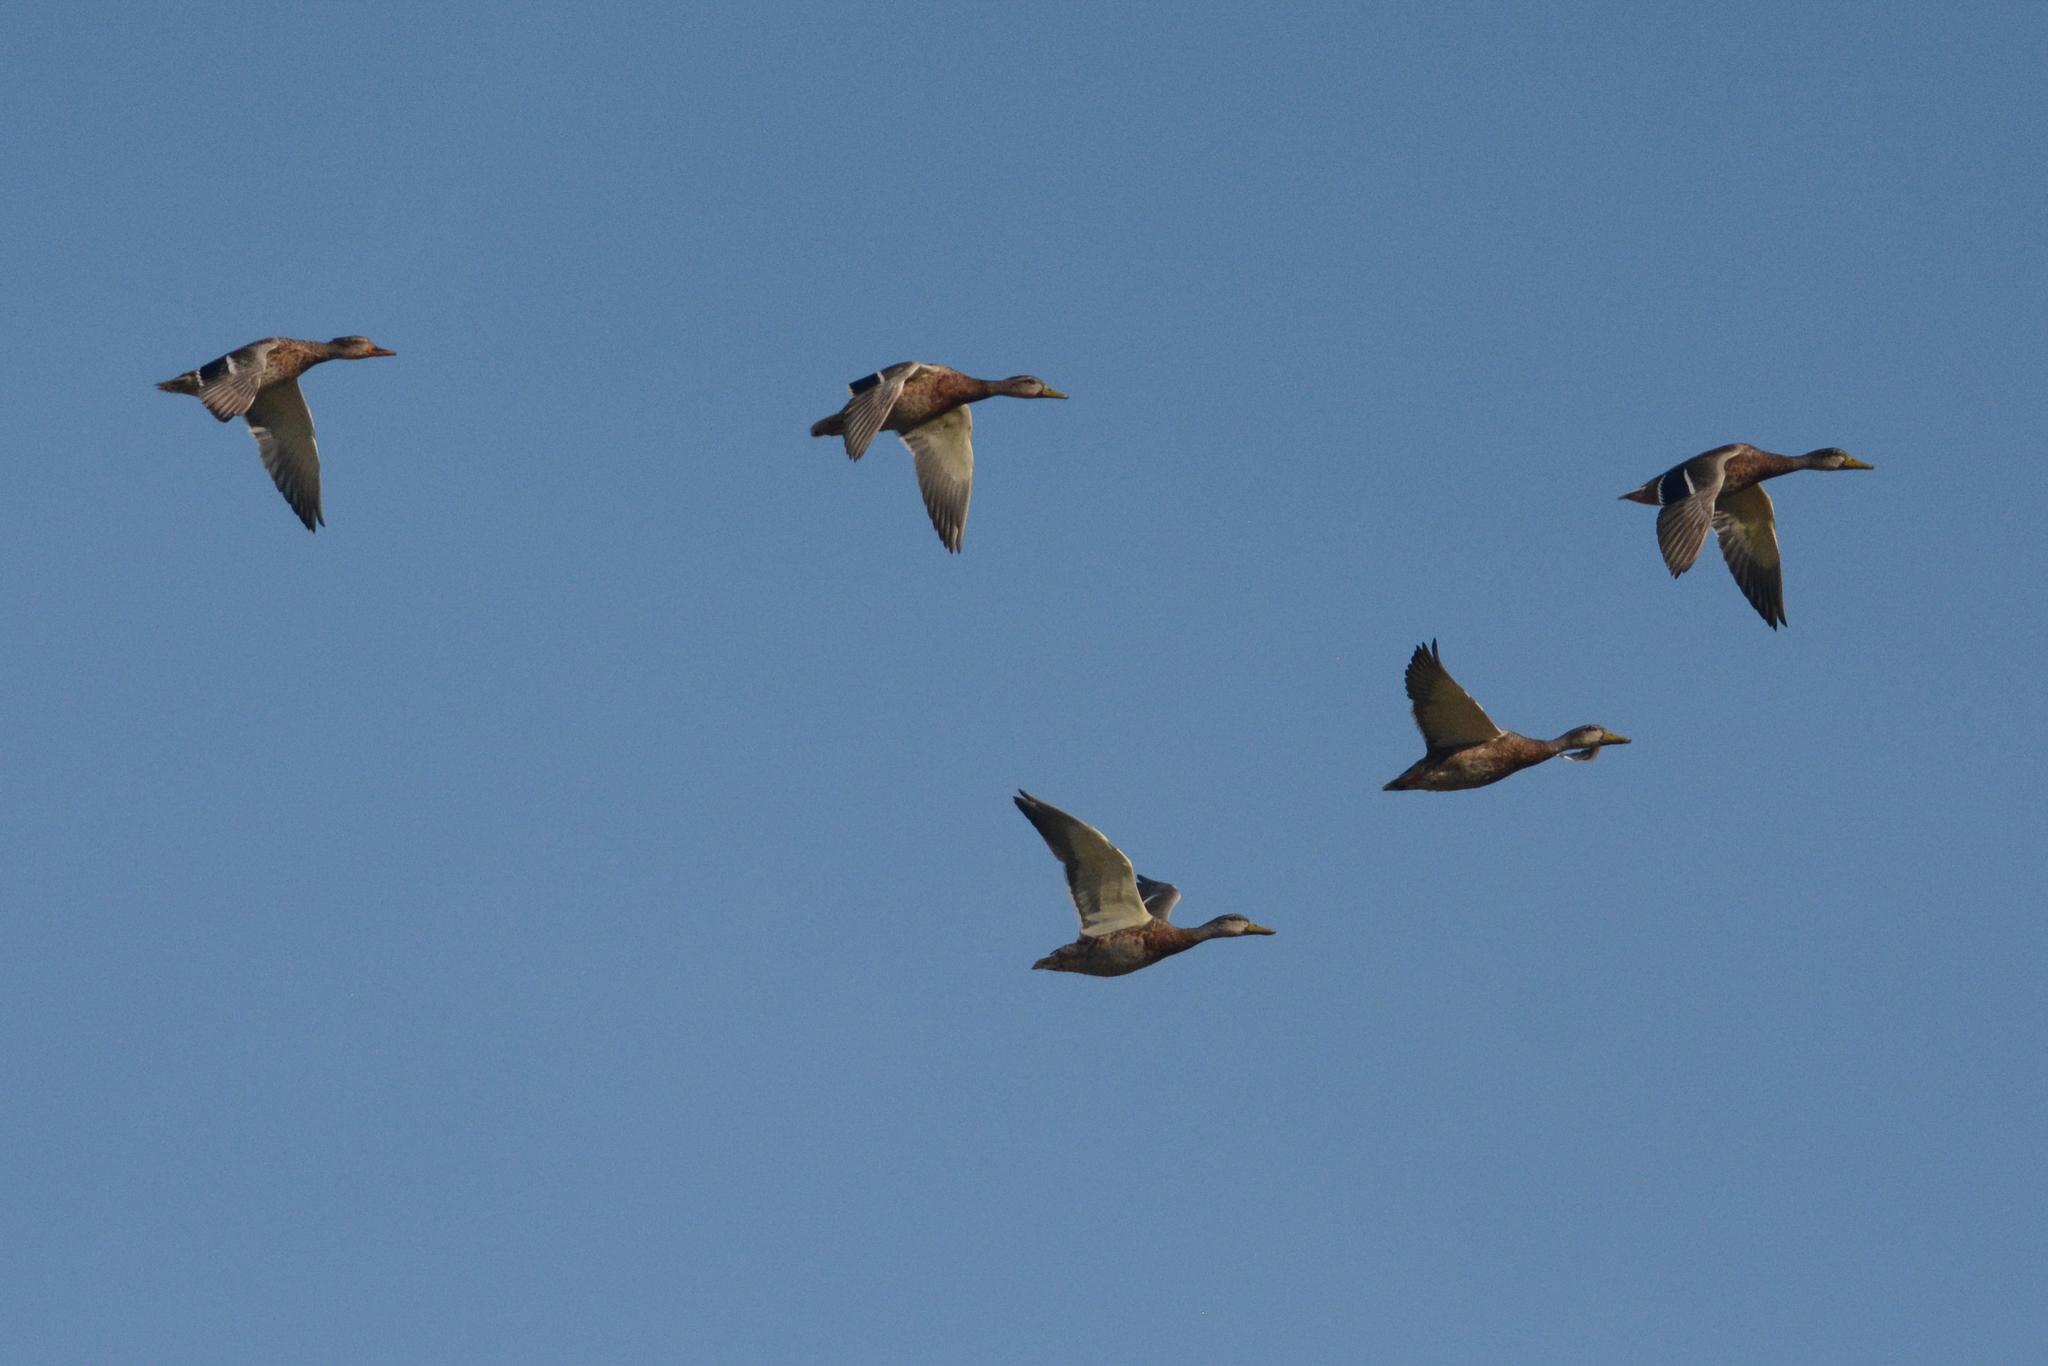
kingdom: Animalia
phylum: Chordata
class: Aves
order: Anseriformes
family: Anatidae
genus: Anas
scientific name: Anas platyrhynchos
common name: Mallard
